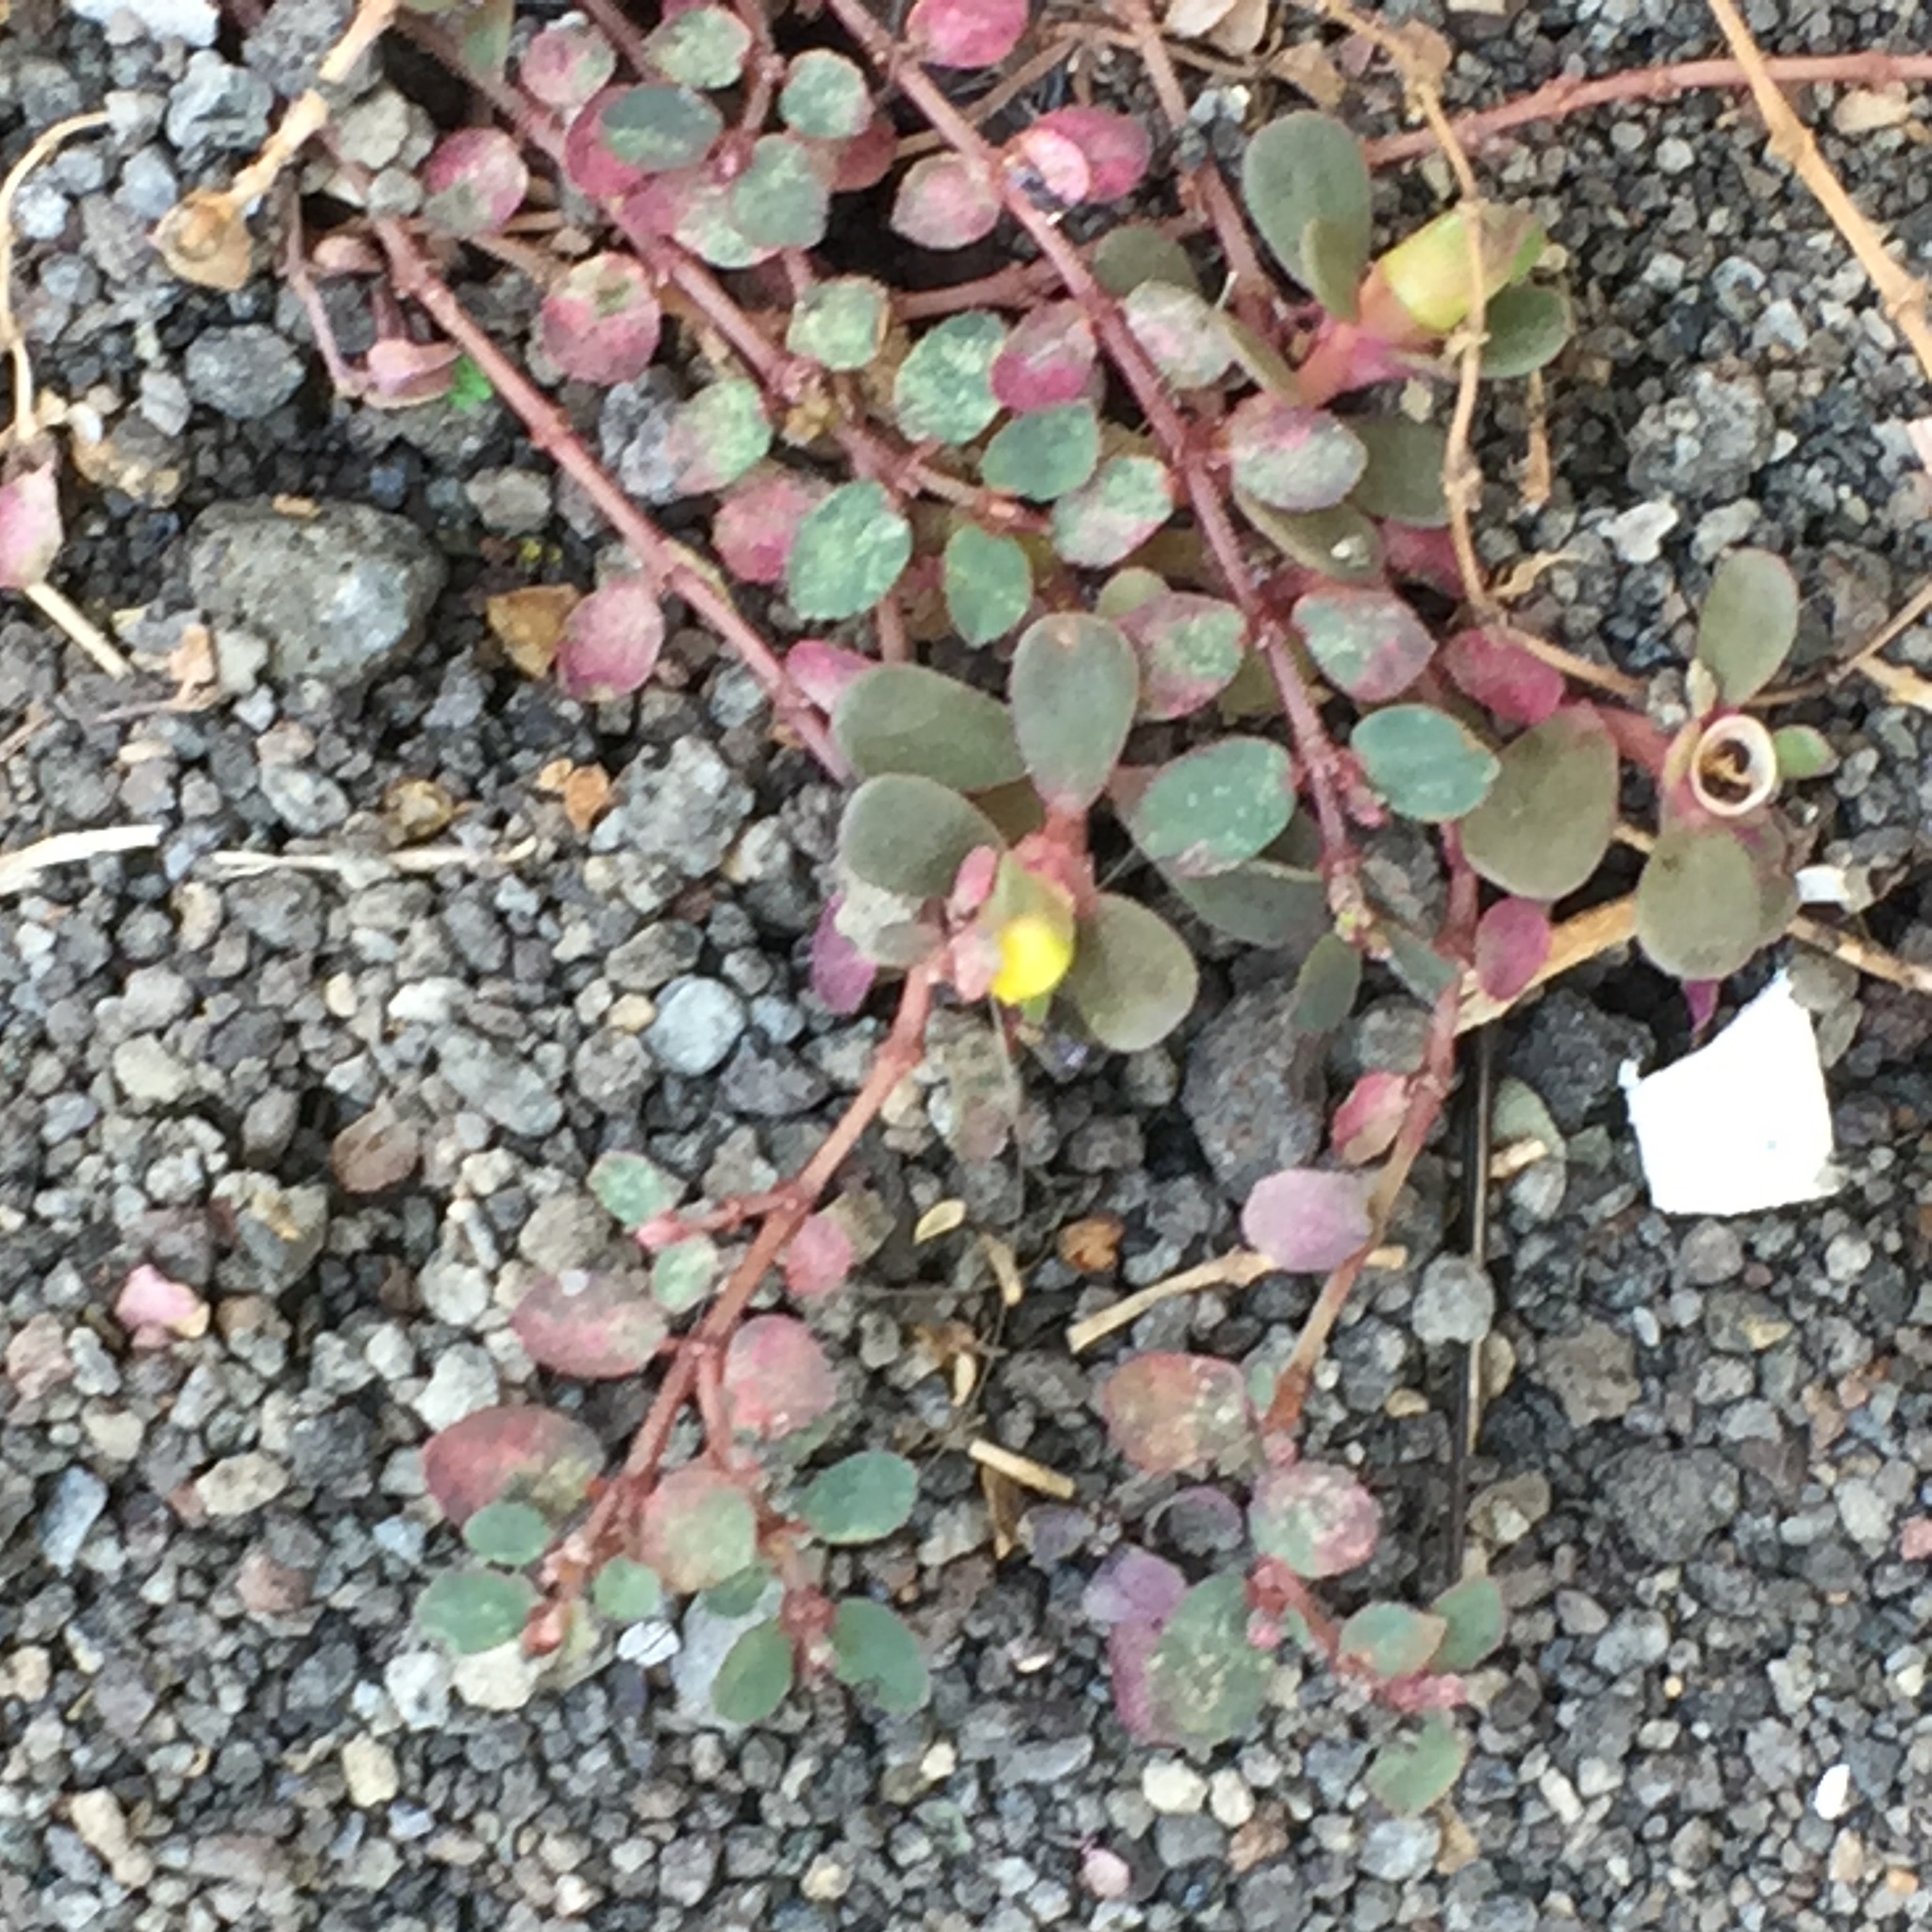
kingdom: Plantae
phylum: Tracheophyta
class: Magnoliopsida
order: Malpighiales
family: Euphorbiaceae
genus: Euphorbia
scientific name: Euphorbia prostrata
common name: Prostrate sandmat
